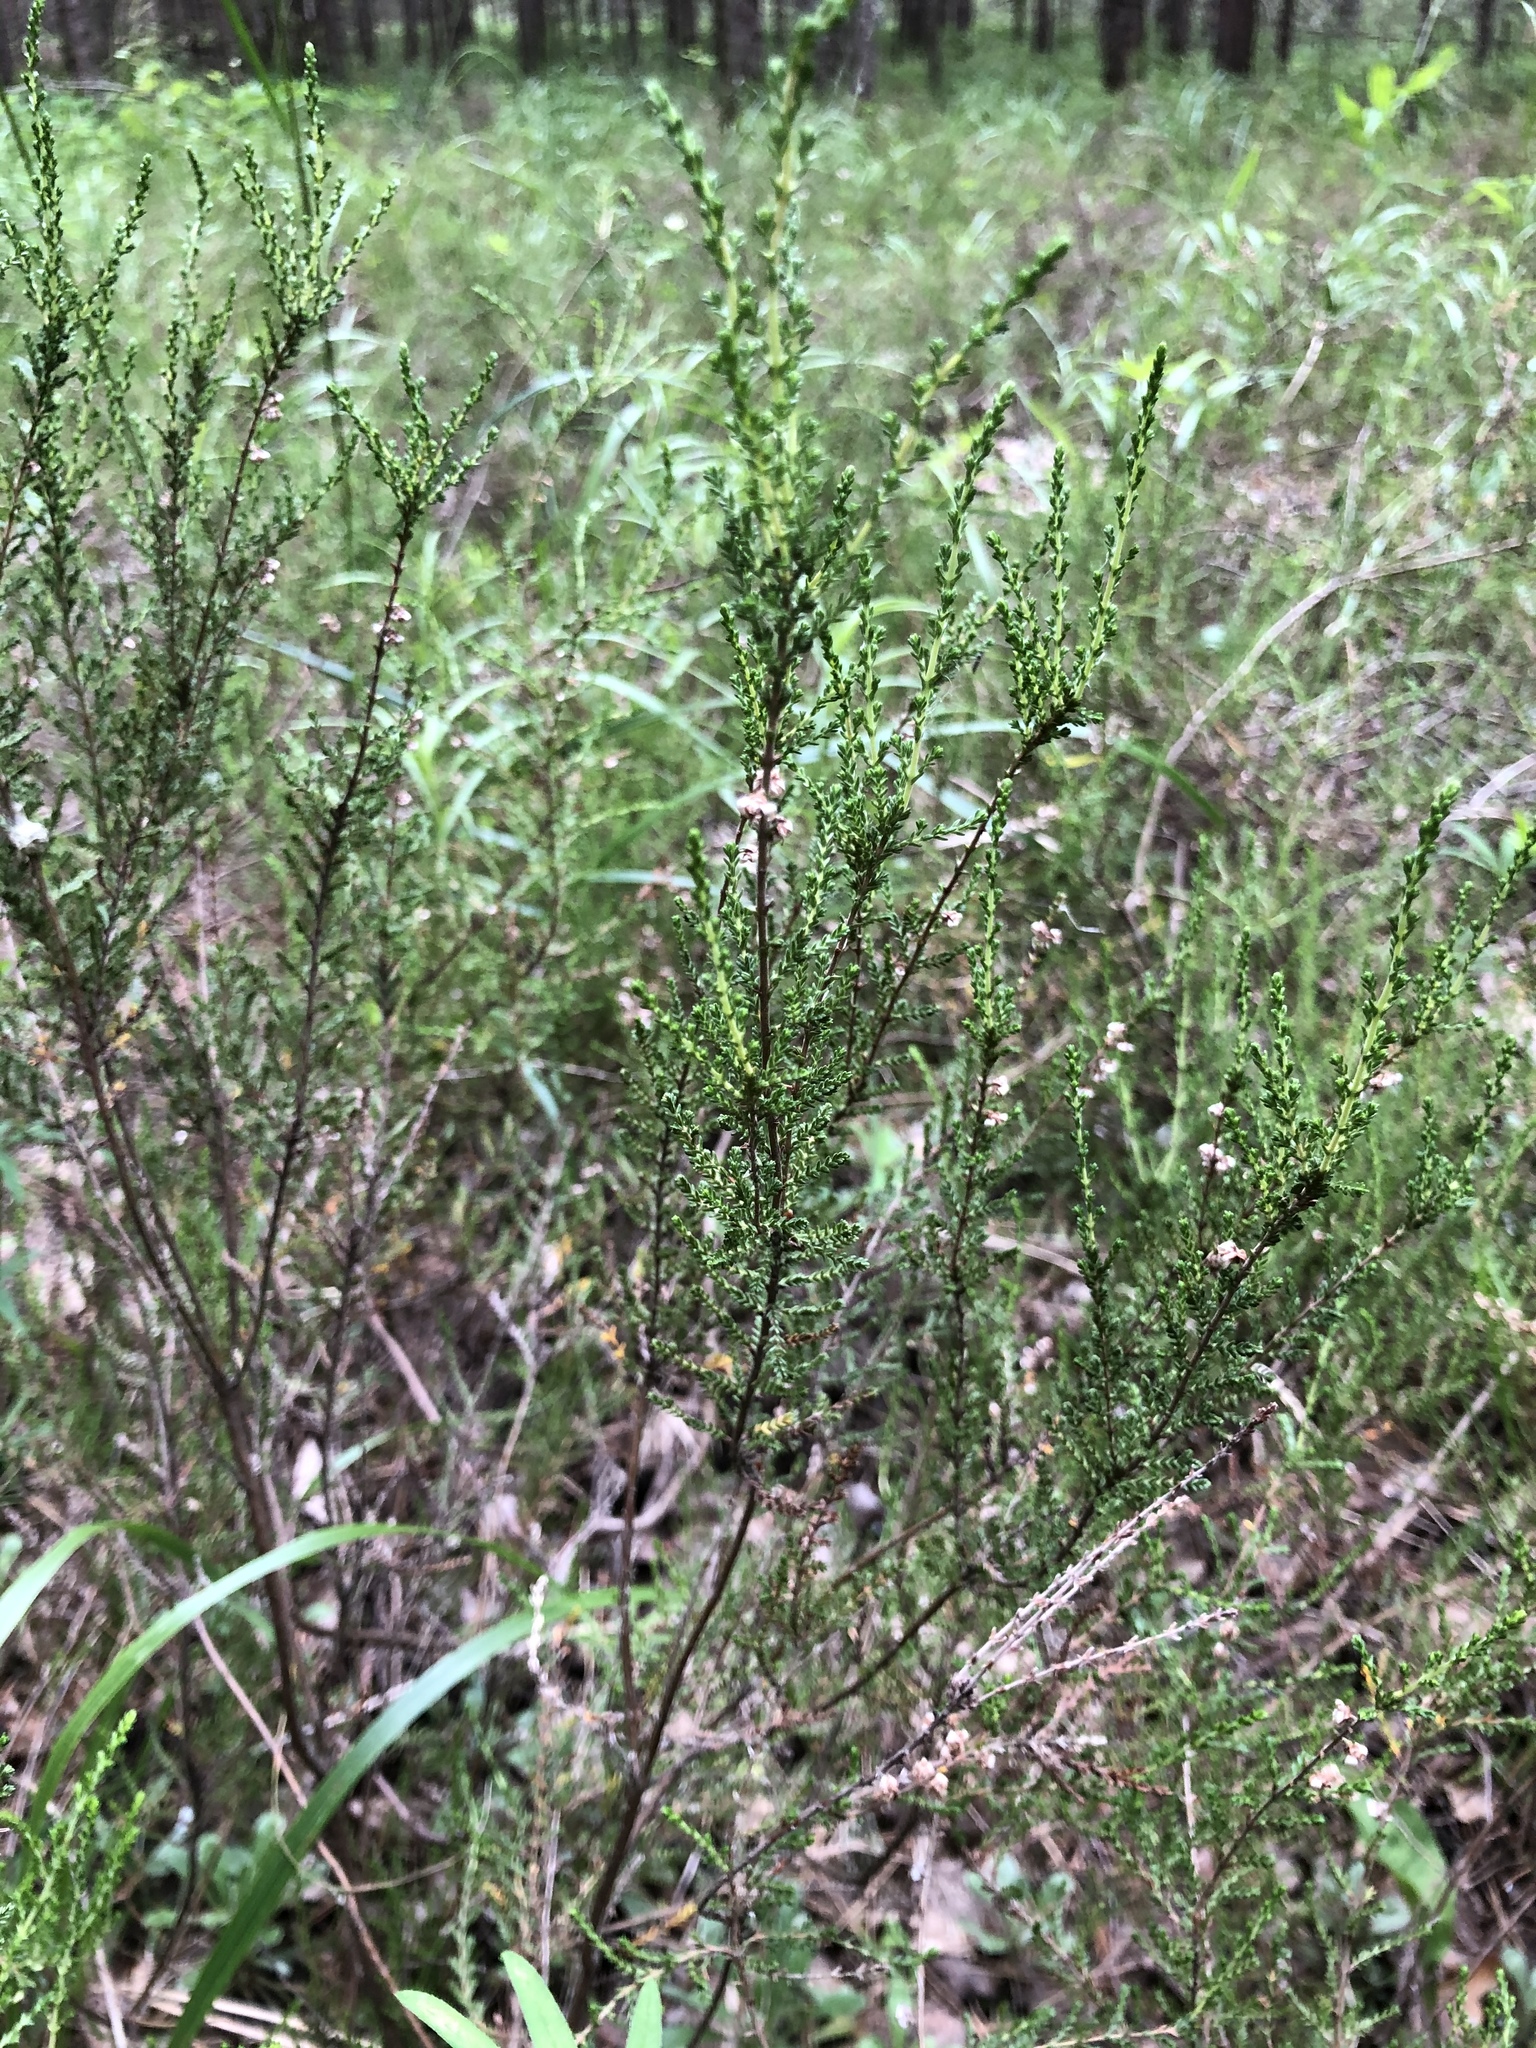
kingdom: Plantae
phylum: Tracheophyta
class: Magnoliopsida
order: Ericales
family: Ericaceae
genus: Calluna
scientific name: Calluna vulgaris
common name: Heather
